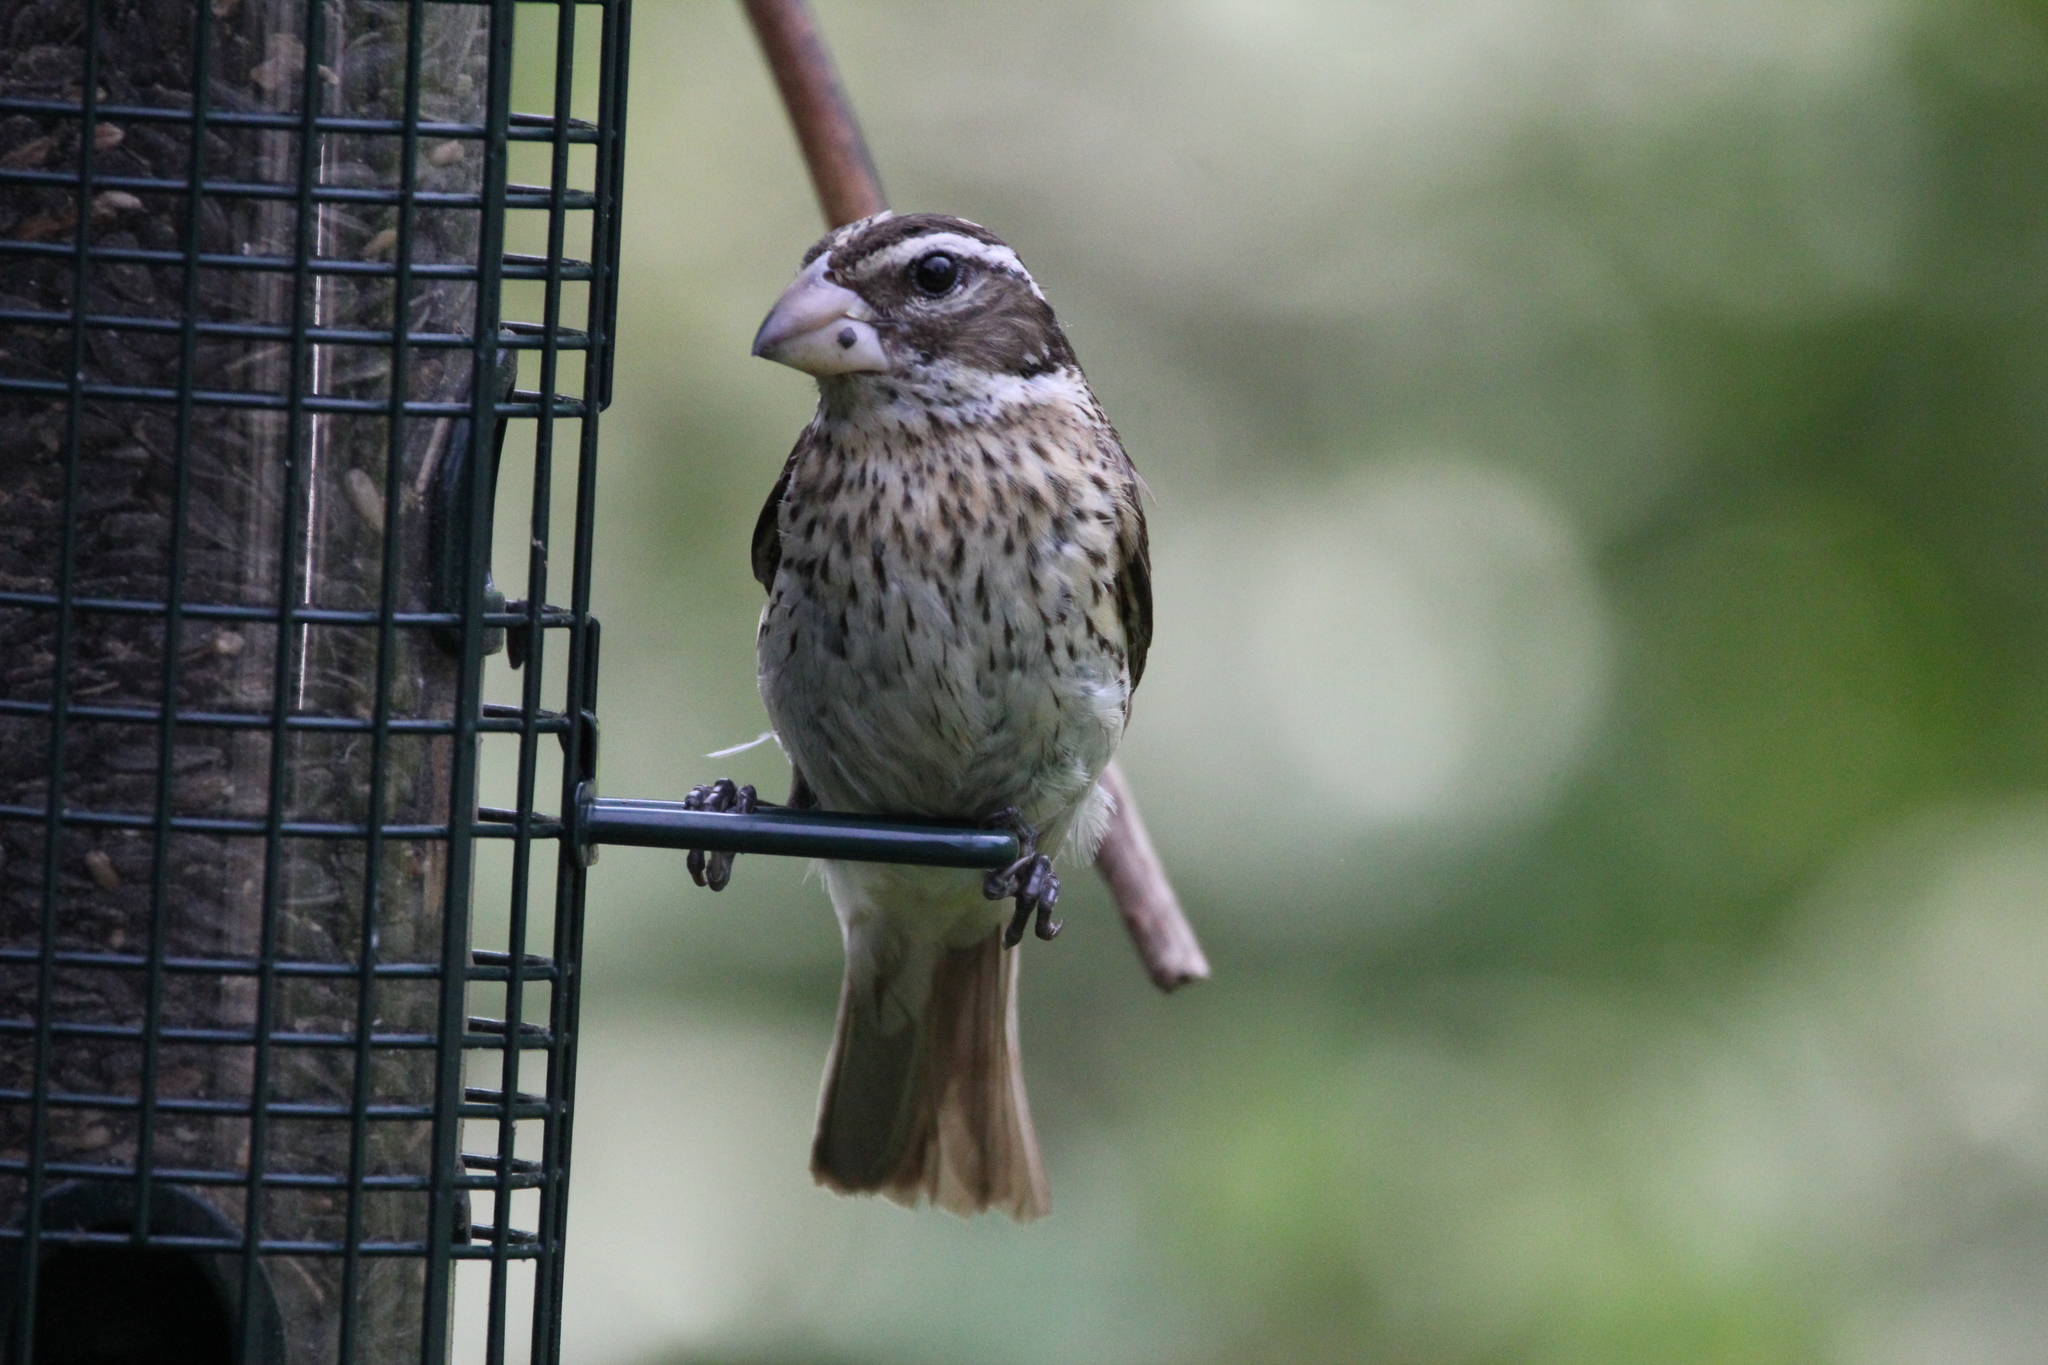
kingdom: Animalia
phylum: Chordata
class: Aves
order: Passeriformes
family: Cardinalidae
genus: Pheucticus
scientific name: Pheucticus ludovicianus
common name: Rose-breasted grosbeak
